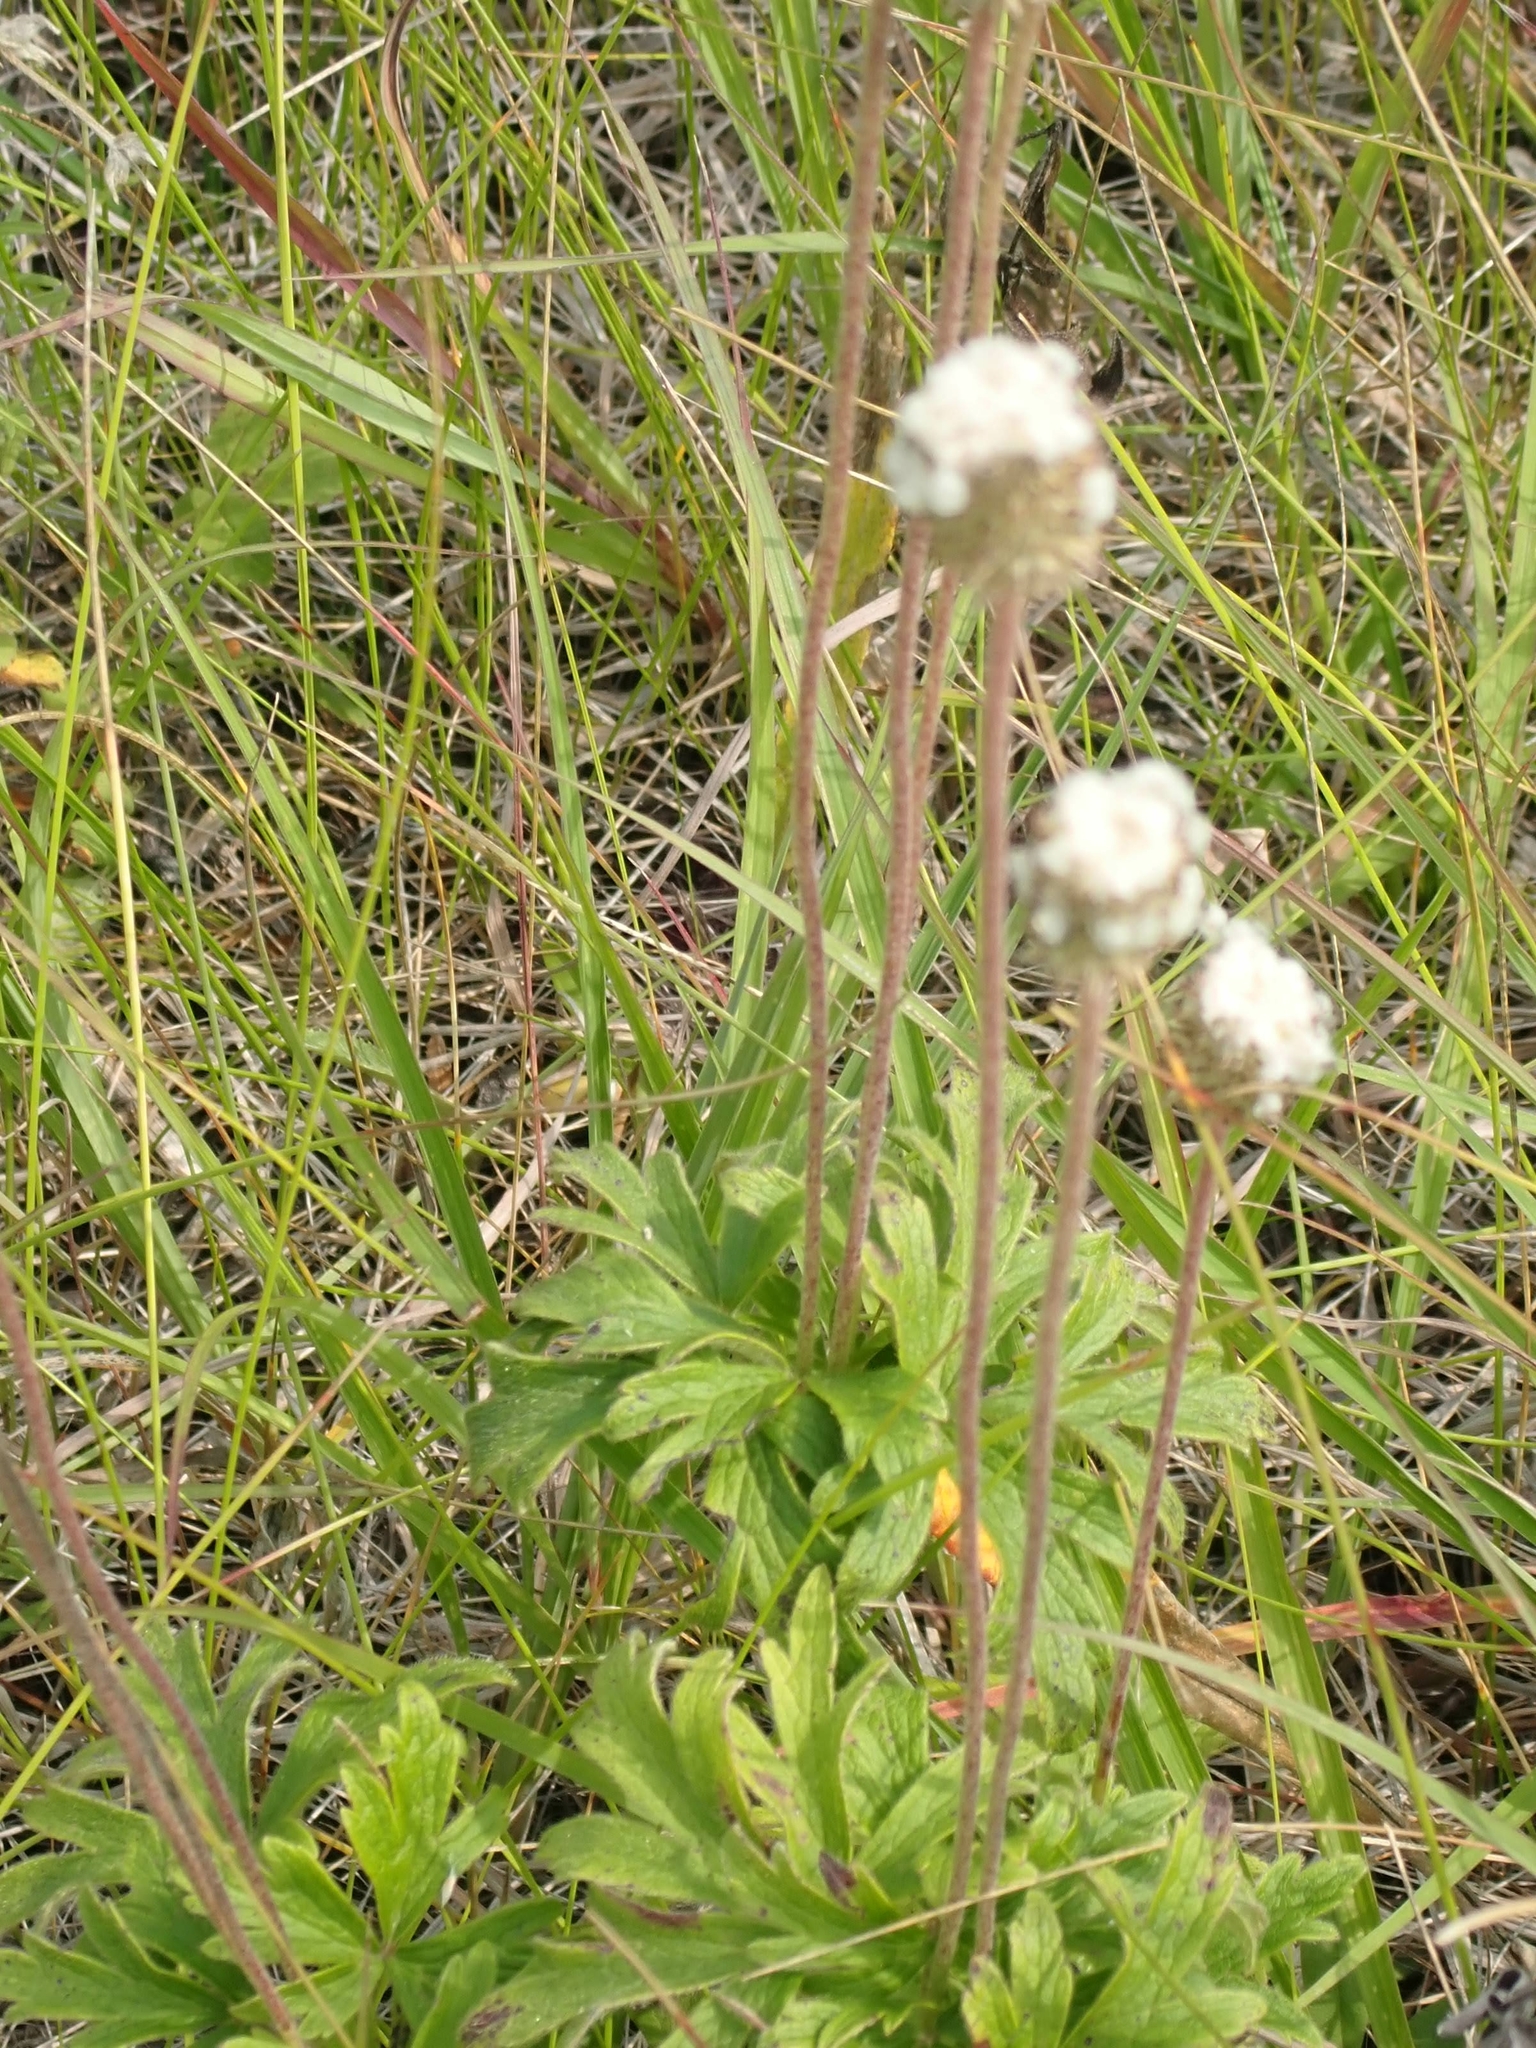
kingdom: Plantae
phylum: Tracheophyta
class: Magnoliopsida
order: Ranunculales
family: Ranunculaceae
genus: Anemone
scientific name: Anemone multifida
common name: Bird's-foot anemone
